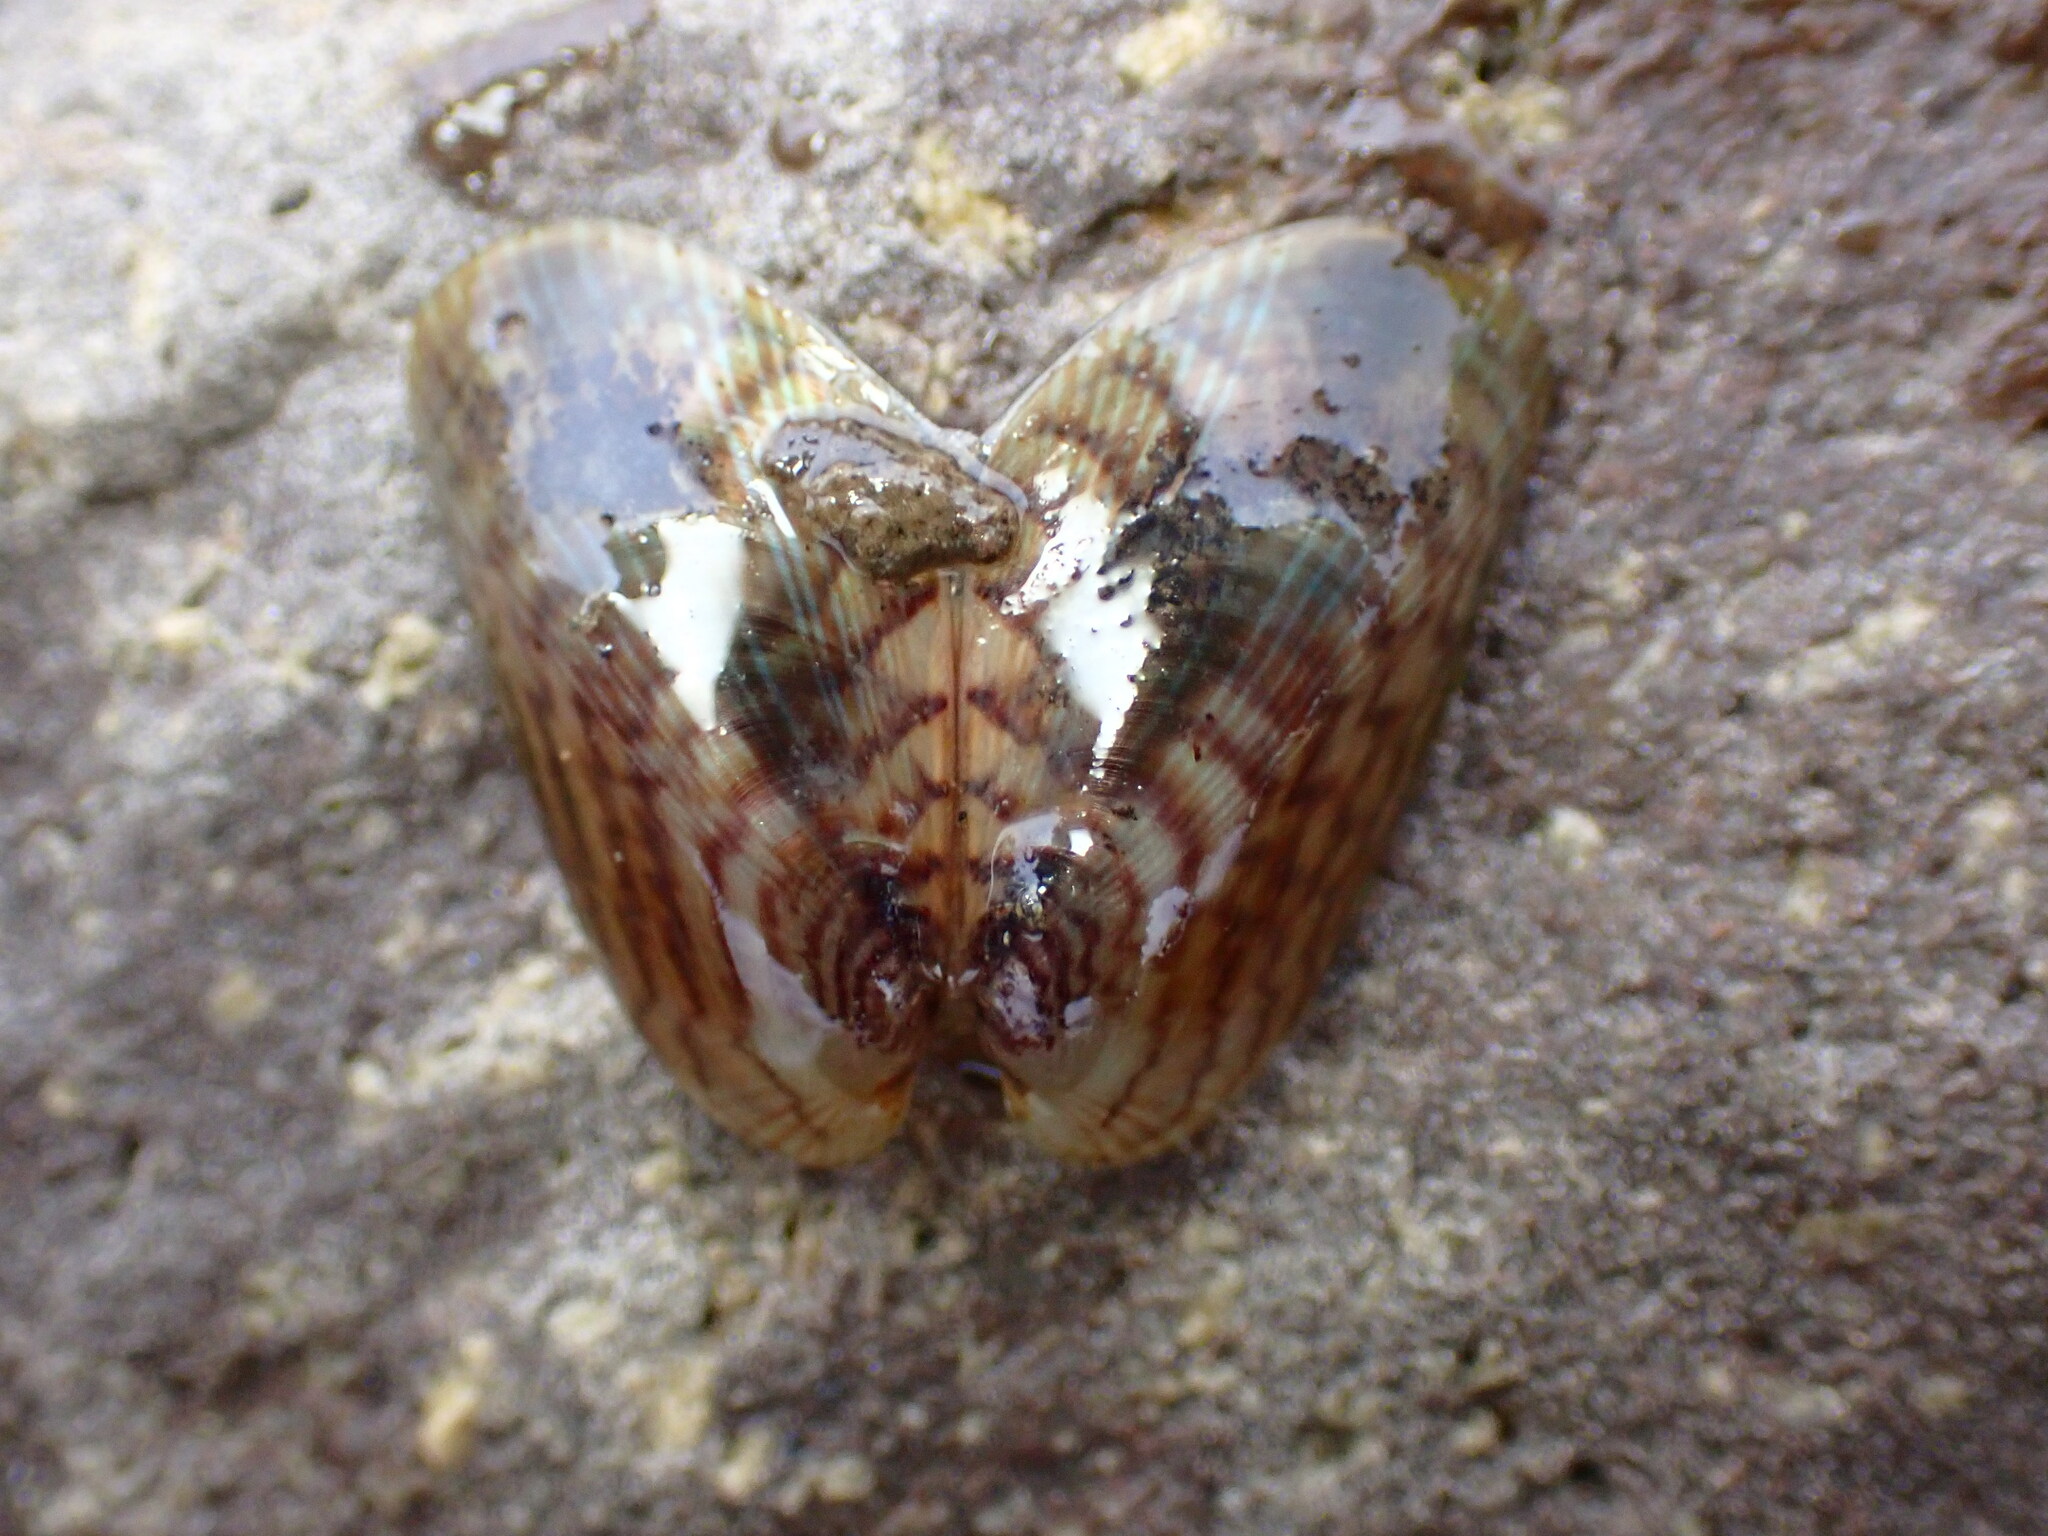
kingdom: Animalia
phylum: Mollusca
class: Bivalvia
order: Mytilida
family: Mytilidae
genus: Arcuatula
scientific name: Arcuatula senhousia
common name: Asian mussel
